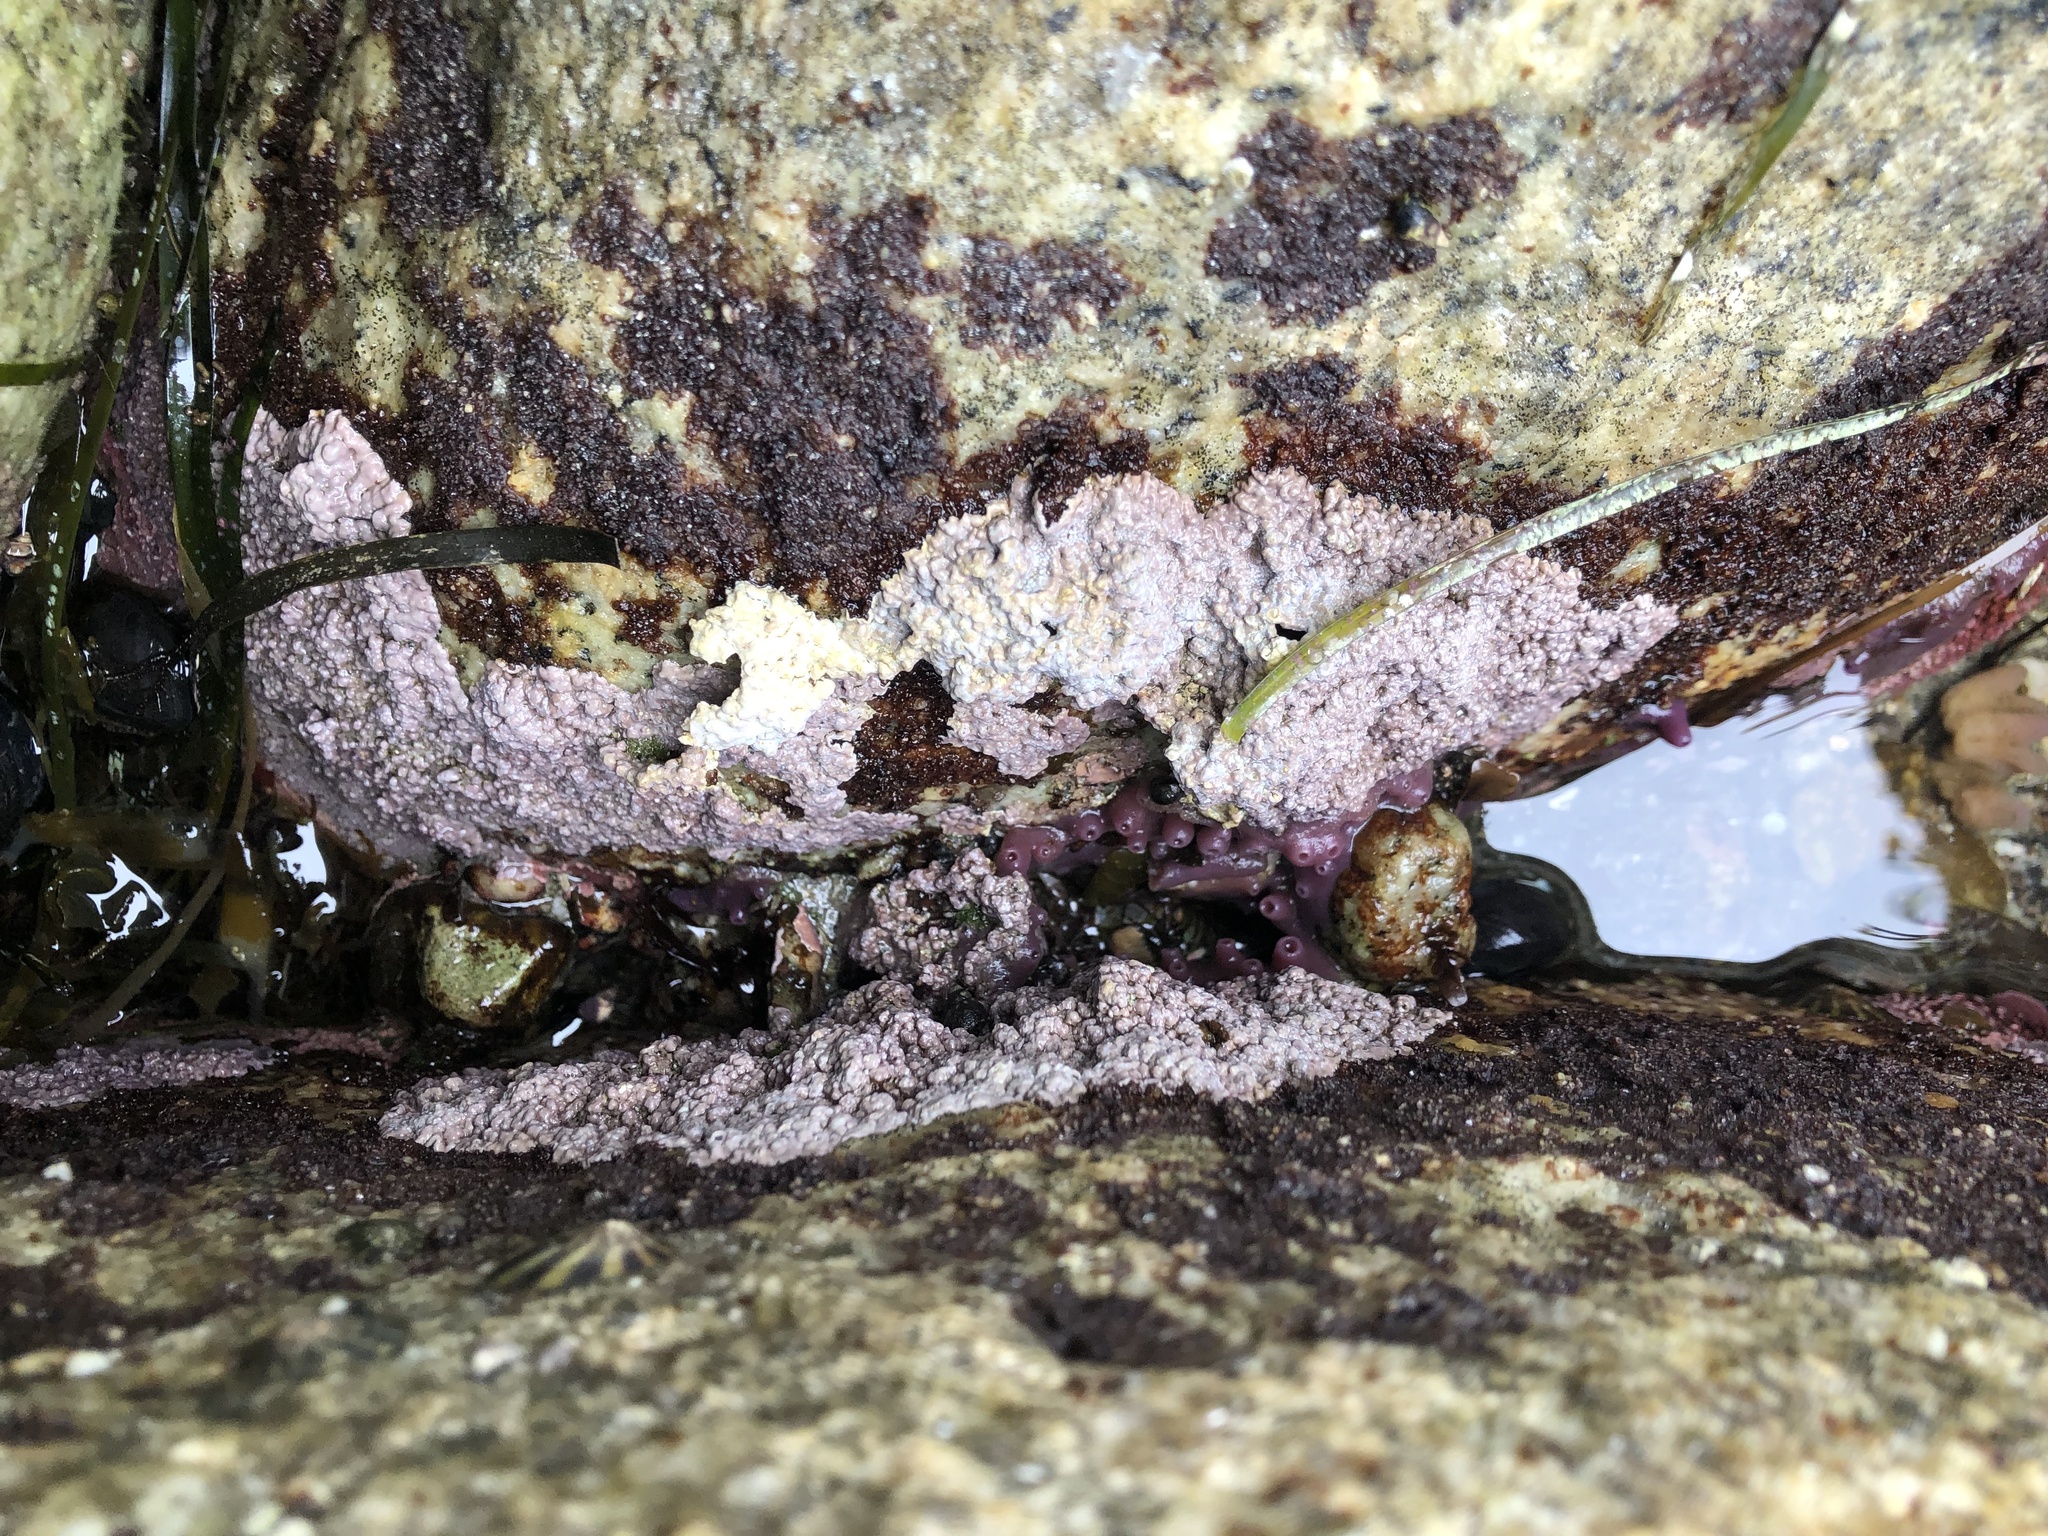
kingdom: Plantae
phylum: Rhodophyta
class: Florideophyceae
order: Corallinales
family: Corallinaceae
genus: Chamberlainium
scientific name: Chamberlainium tumidum
